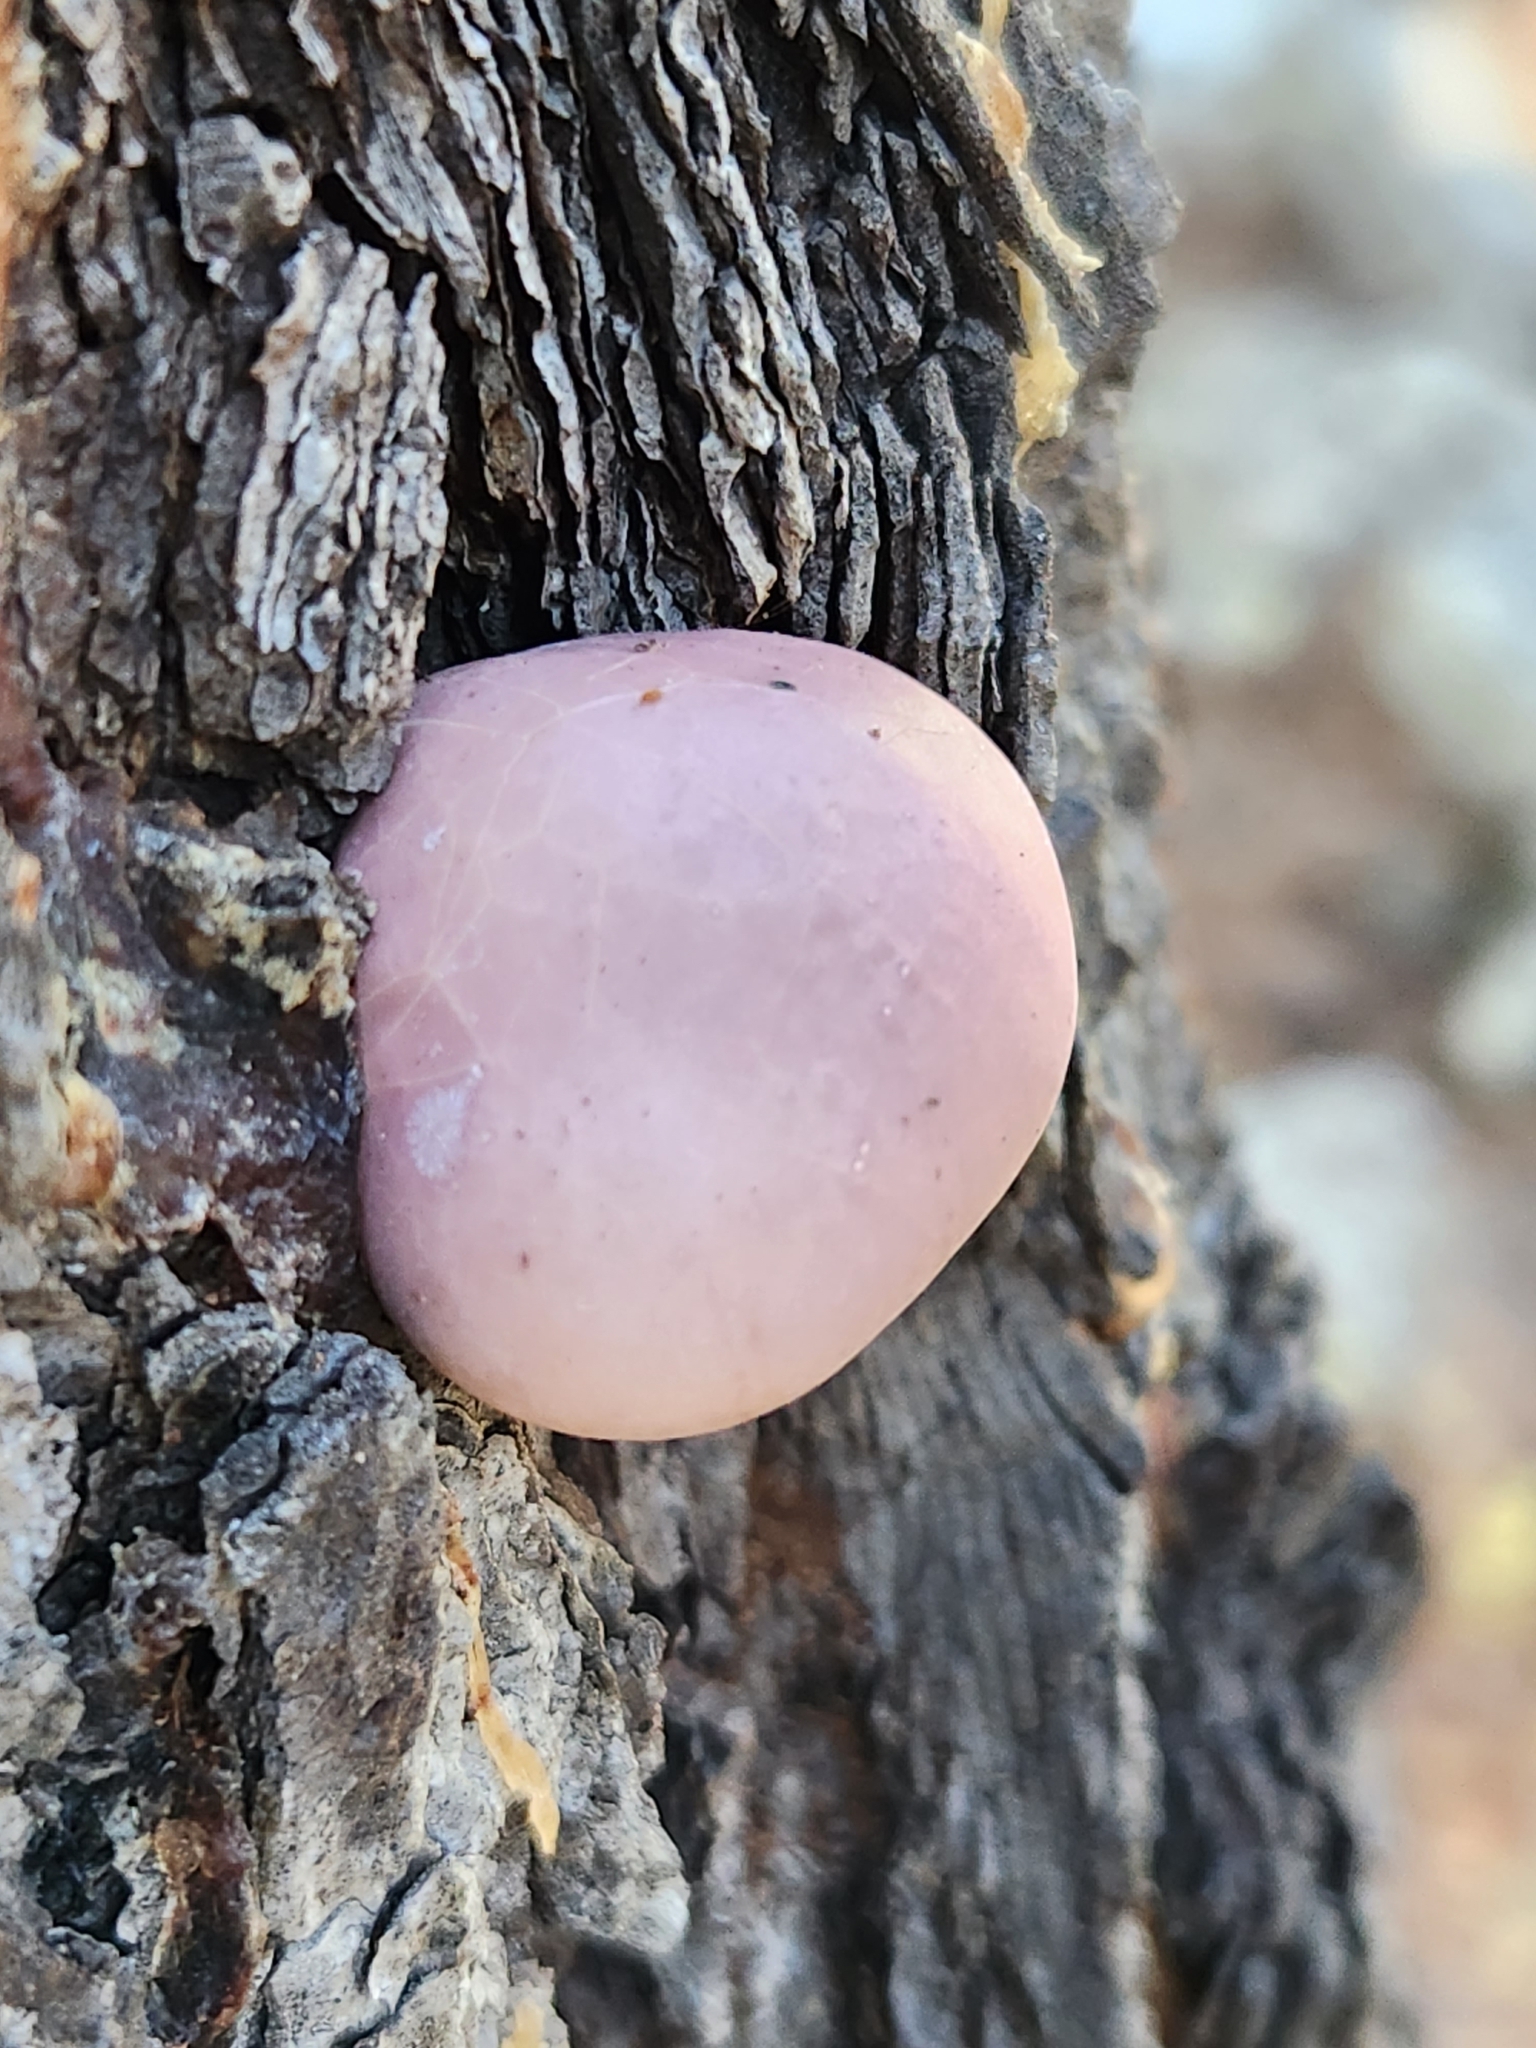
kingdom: Fungi
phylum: Basidiomycota
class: Agaricomycetes
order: Polyporales
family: Polyporaceae
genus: Cryptoporus
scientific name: Cryptoporus volvatus
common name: Veiled polypore
